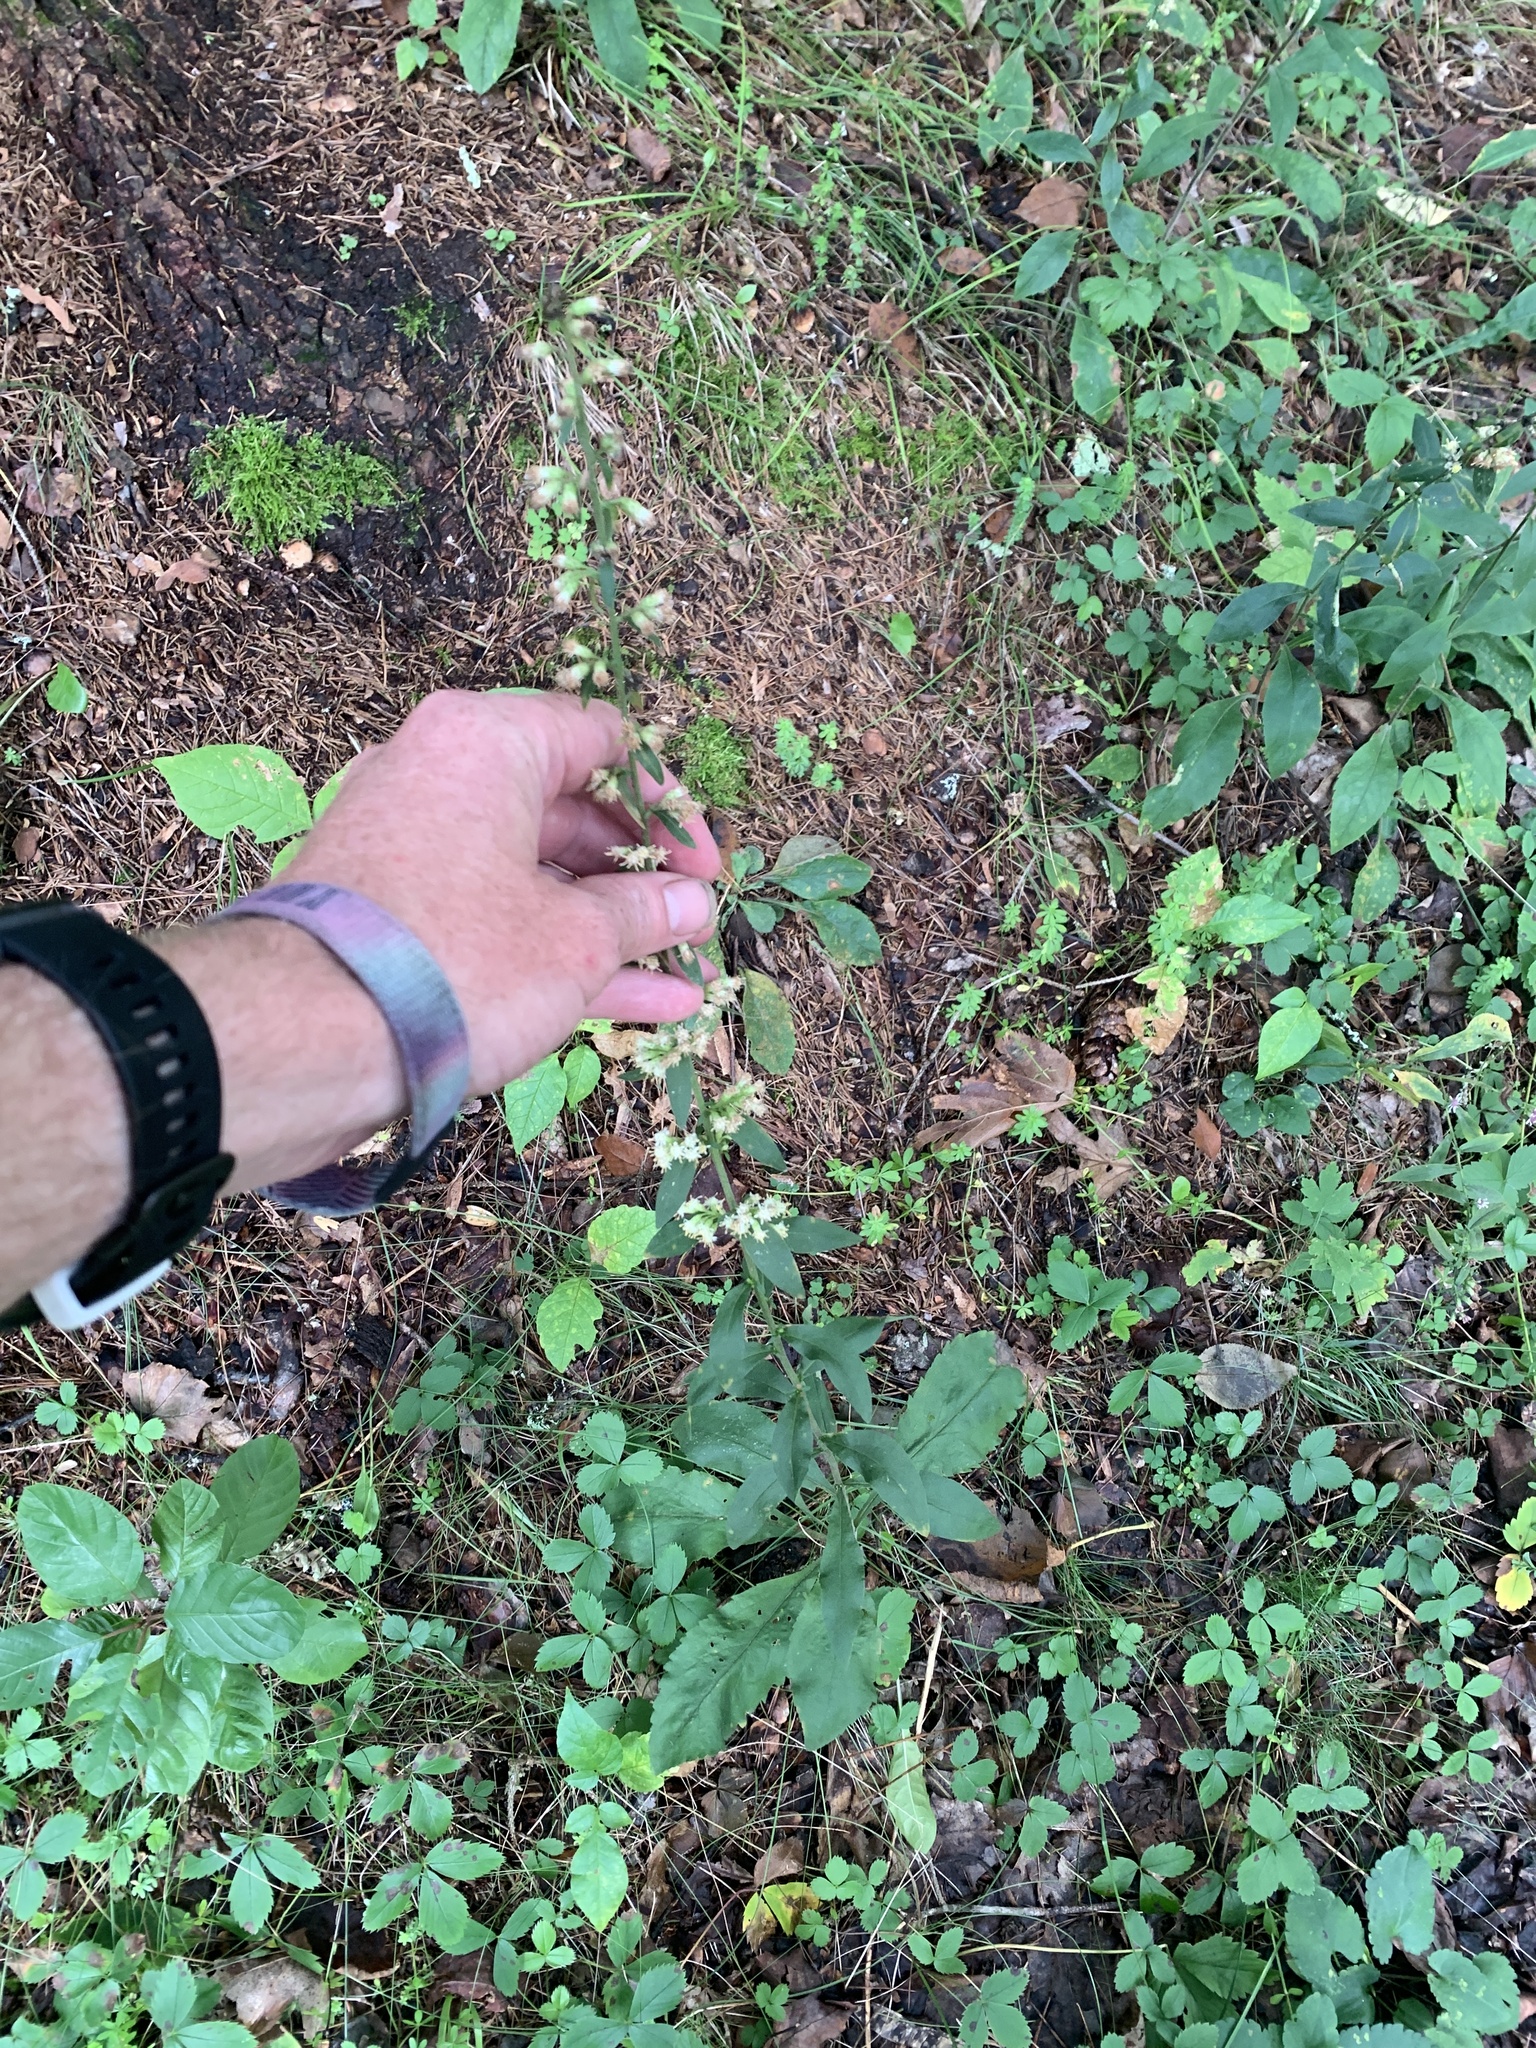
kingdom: Plantae
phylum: Tracheophyta
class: Magnoliopsida
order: Asterales
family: Asteraceae
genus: Solidago
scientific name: Solidago bicolor
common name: Silverrod
